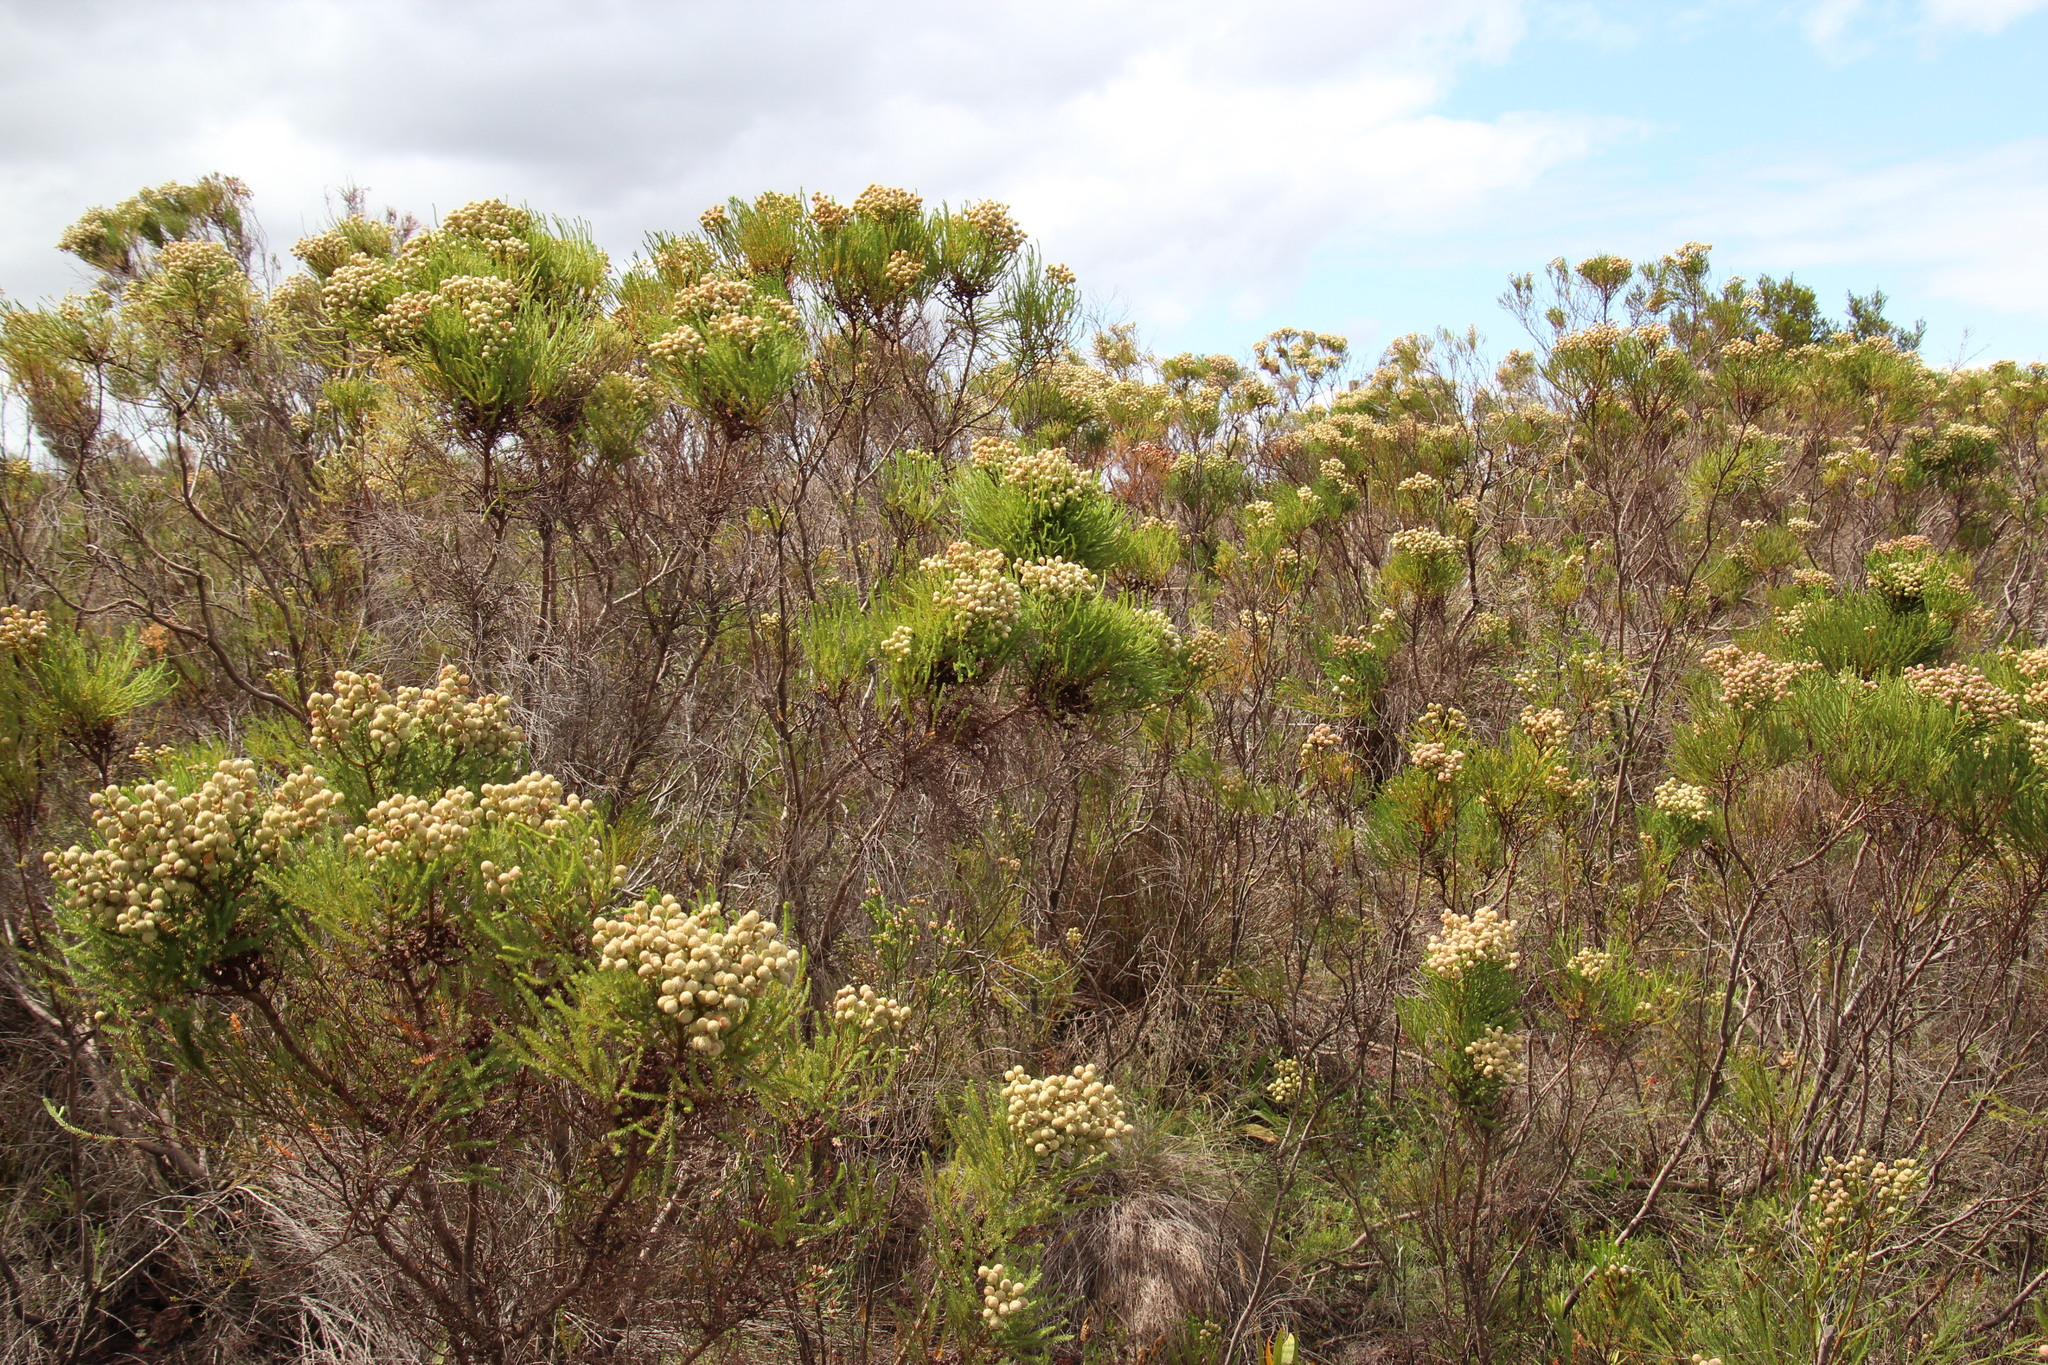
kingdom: Plantae
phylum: Tracheophyta
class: Magnoliopsida
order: Bruniales
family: Bruniaceae
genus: Berzelia
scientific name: Berzelia lanuginosa
